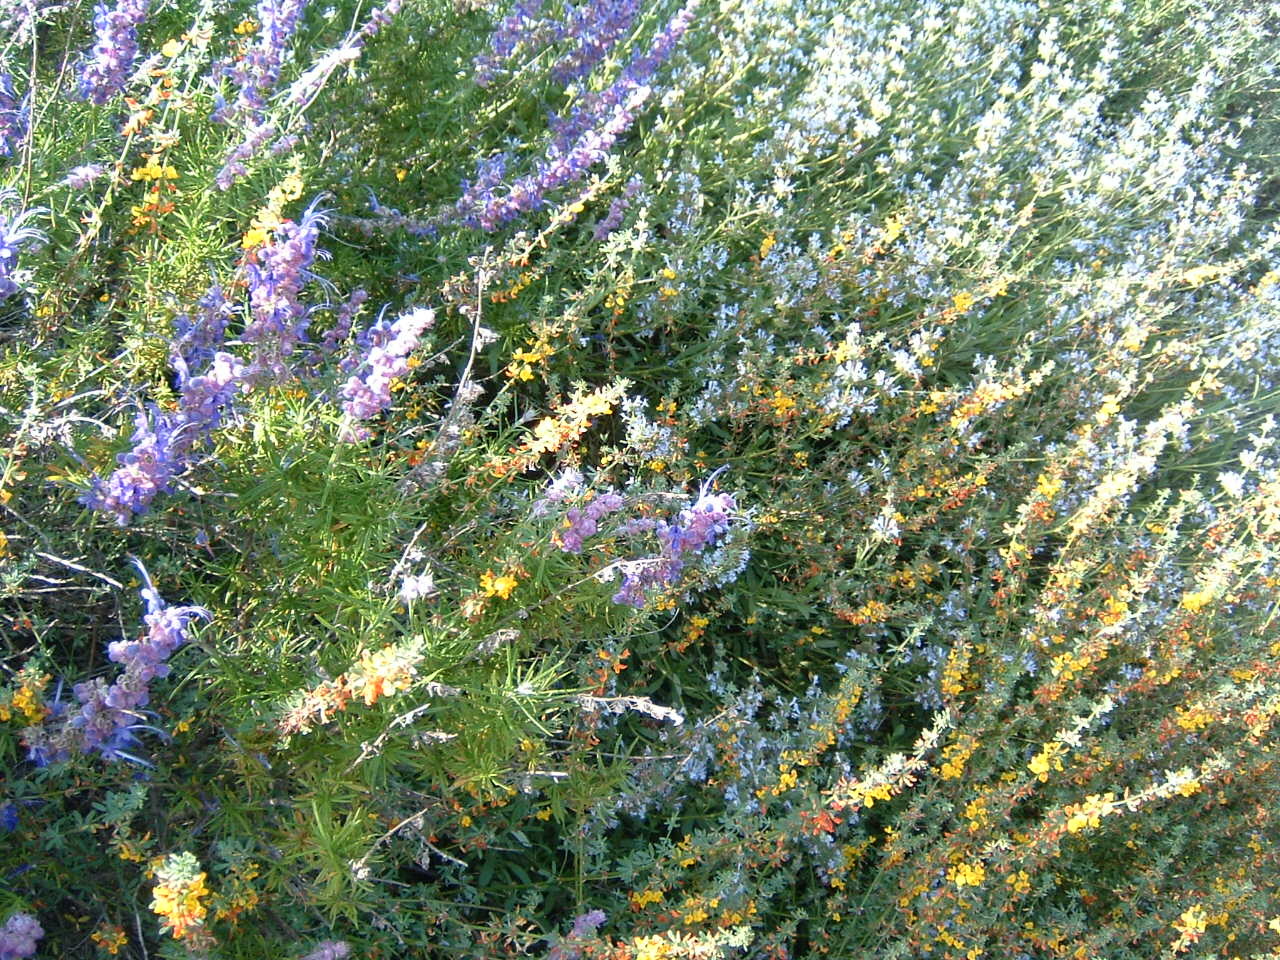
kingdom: Plantae
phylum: Tracheophyta
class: Magnoliopsida
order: Lamiales
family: Lamiaceae
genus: Trichostema
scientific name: Trichostema lanatum
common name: Woolly bluecurls
